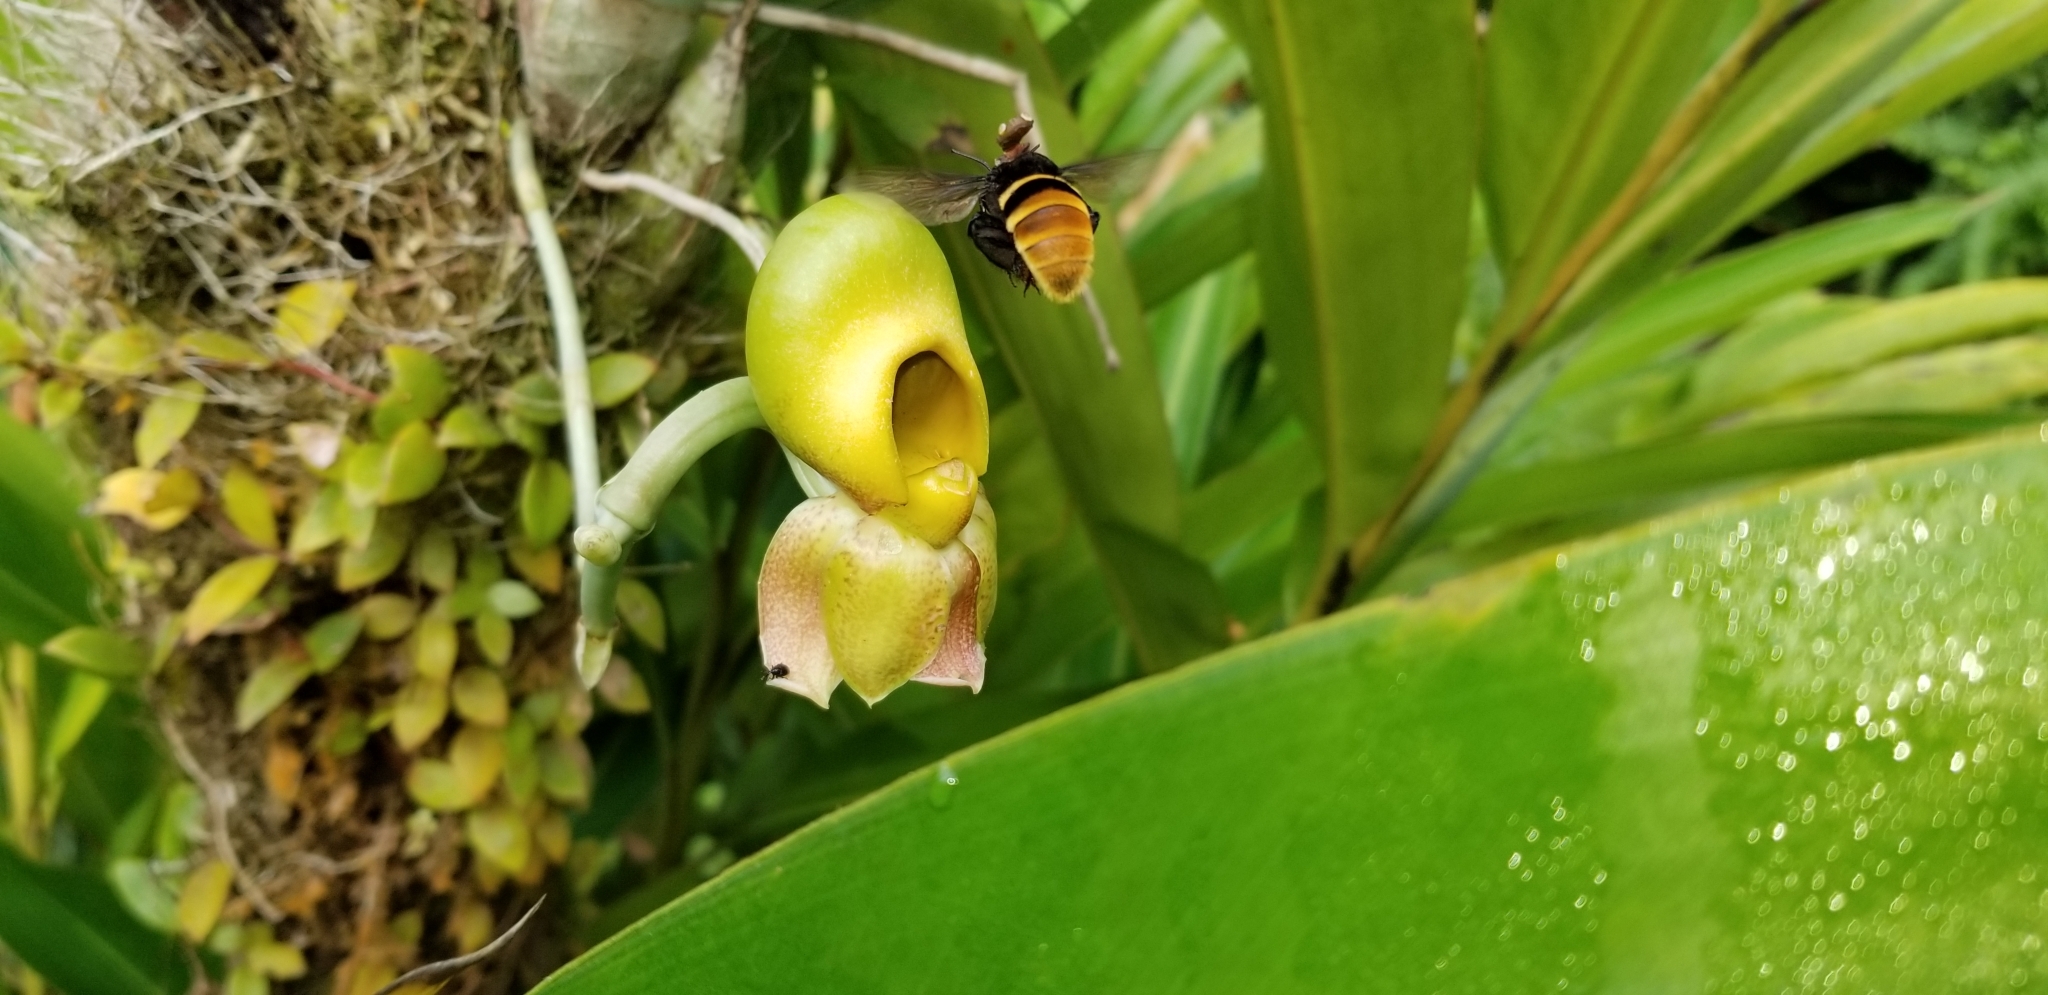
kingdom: Animalia
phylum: Arthropoda
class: Insecta
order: Hymenoptera
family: Apidae
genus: Eulaema
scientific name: Eulaema cingulata
